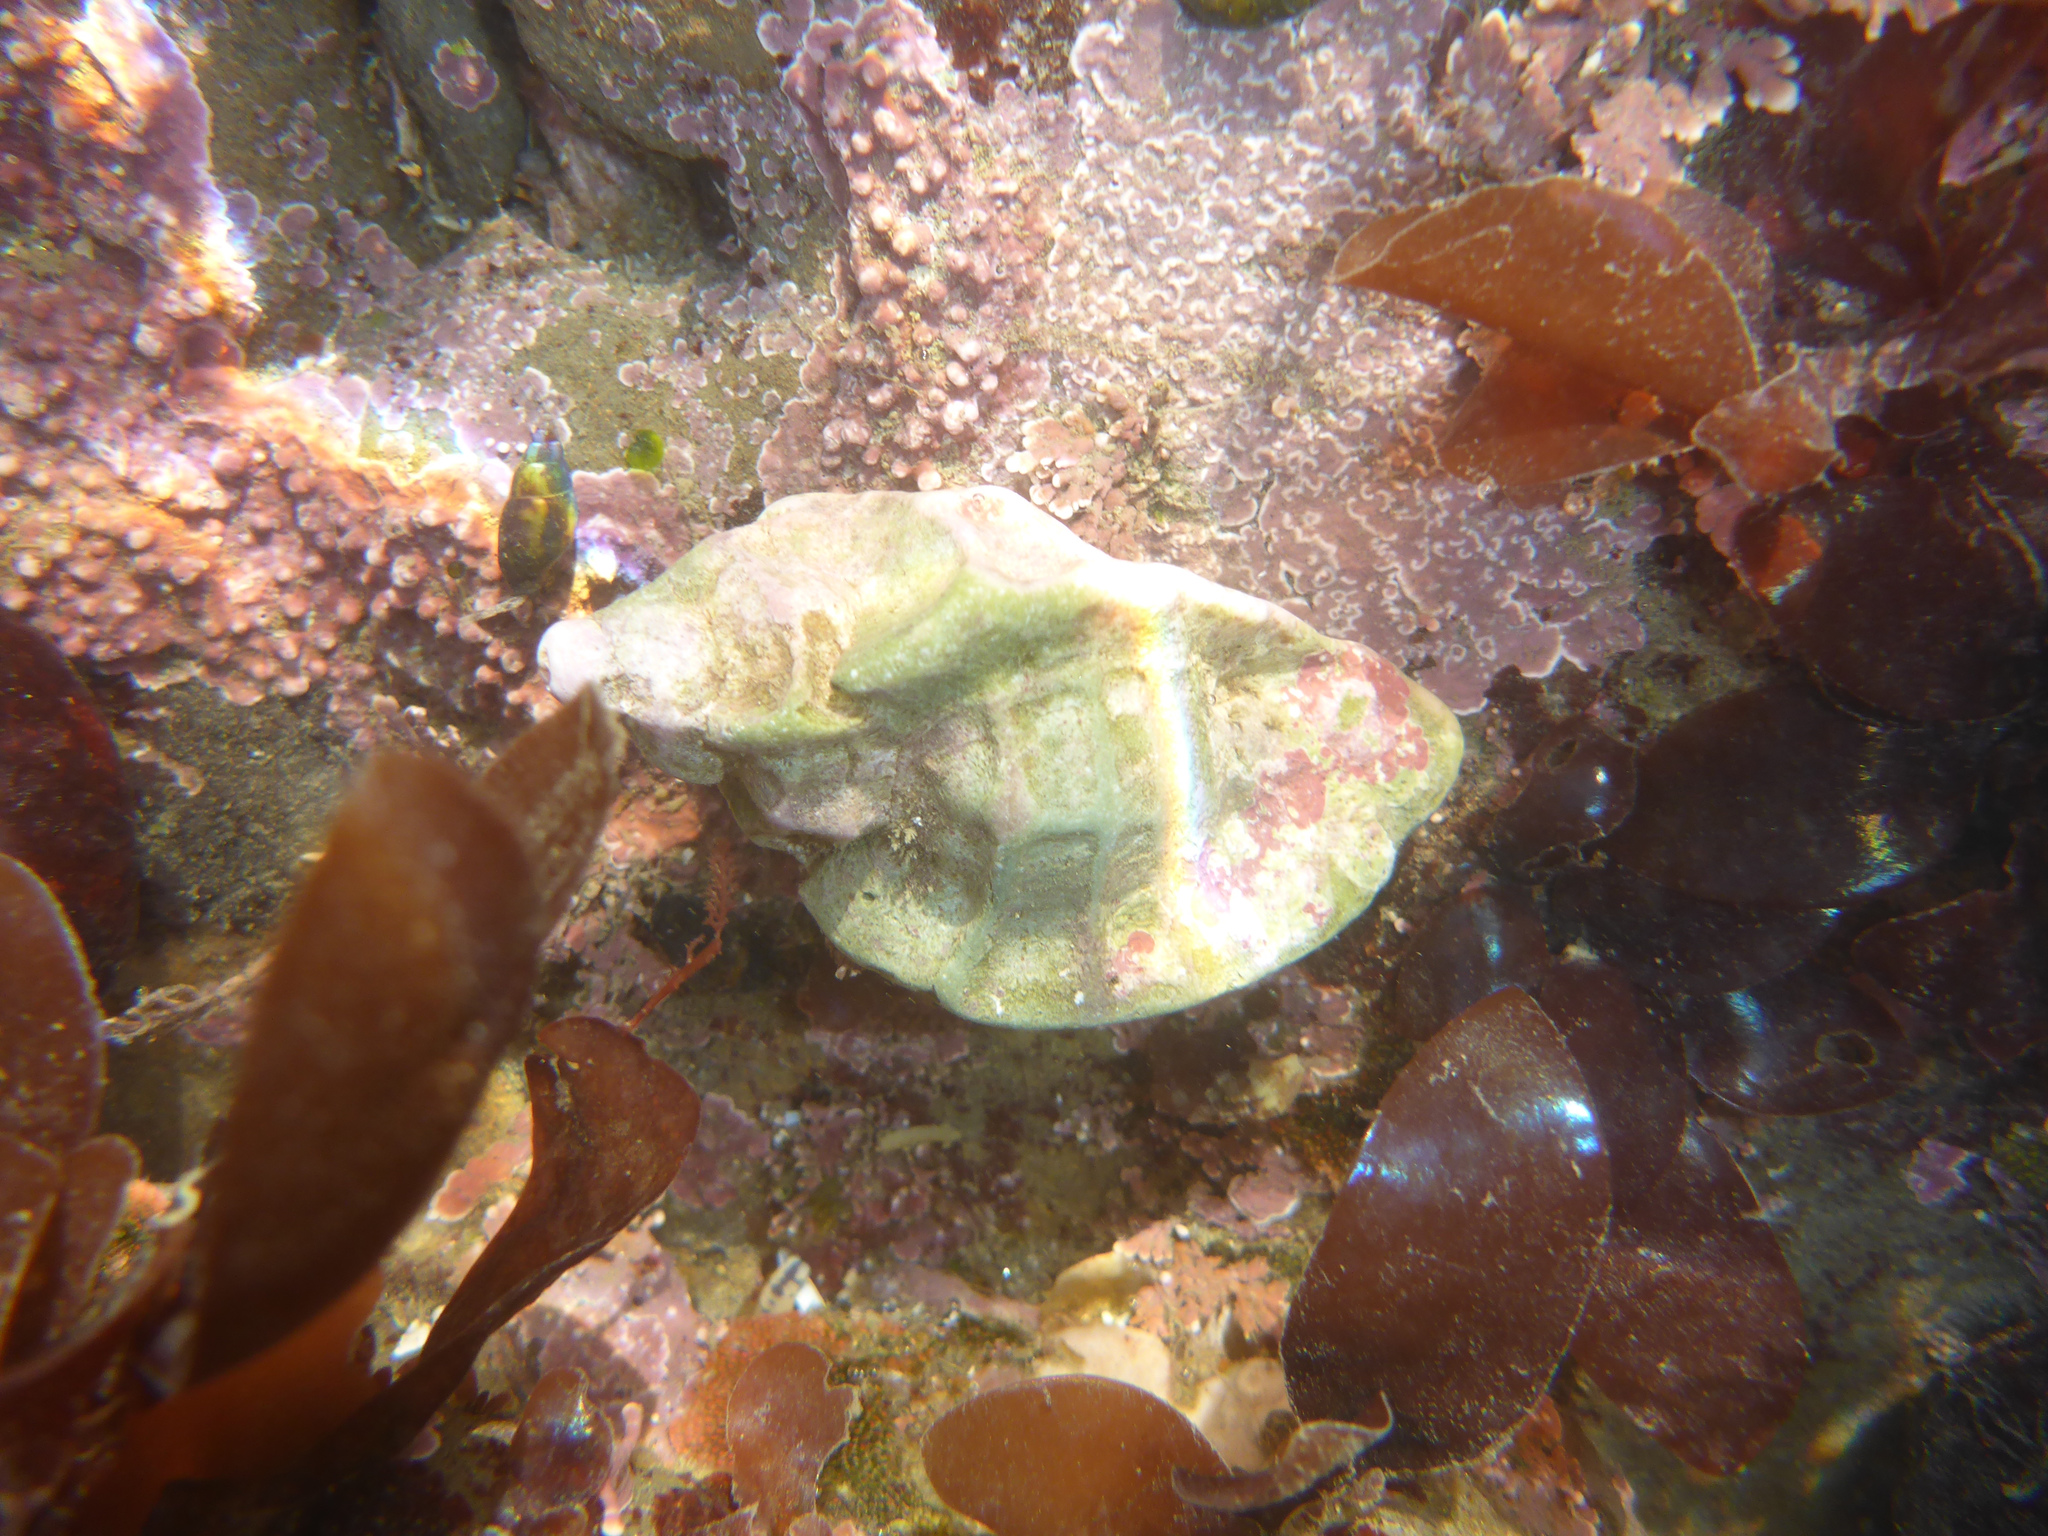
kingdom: Animalia
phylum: Mollusca
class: Gastropoda
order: Neogastropoda
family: Muricidae
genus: Ceratostoma
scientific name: Ceratostoma foliatum
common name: Foliate thorn purpura
